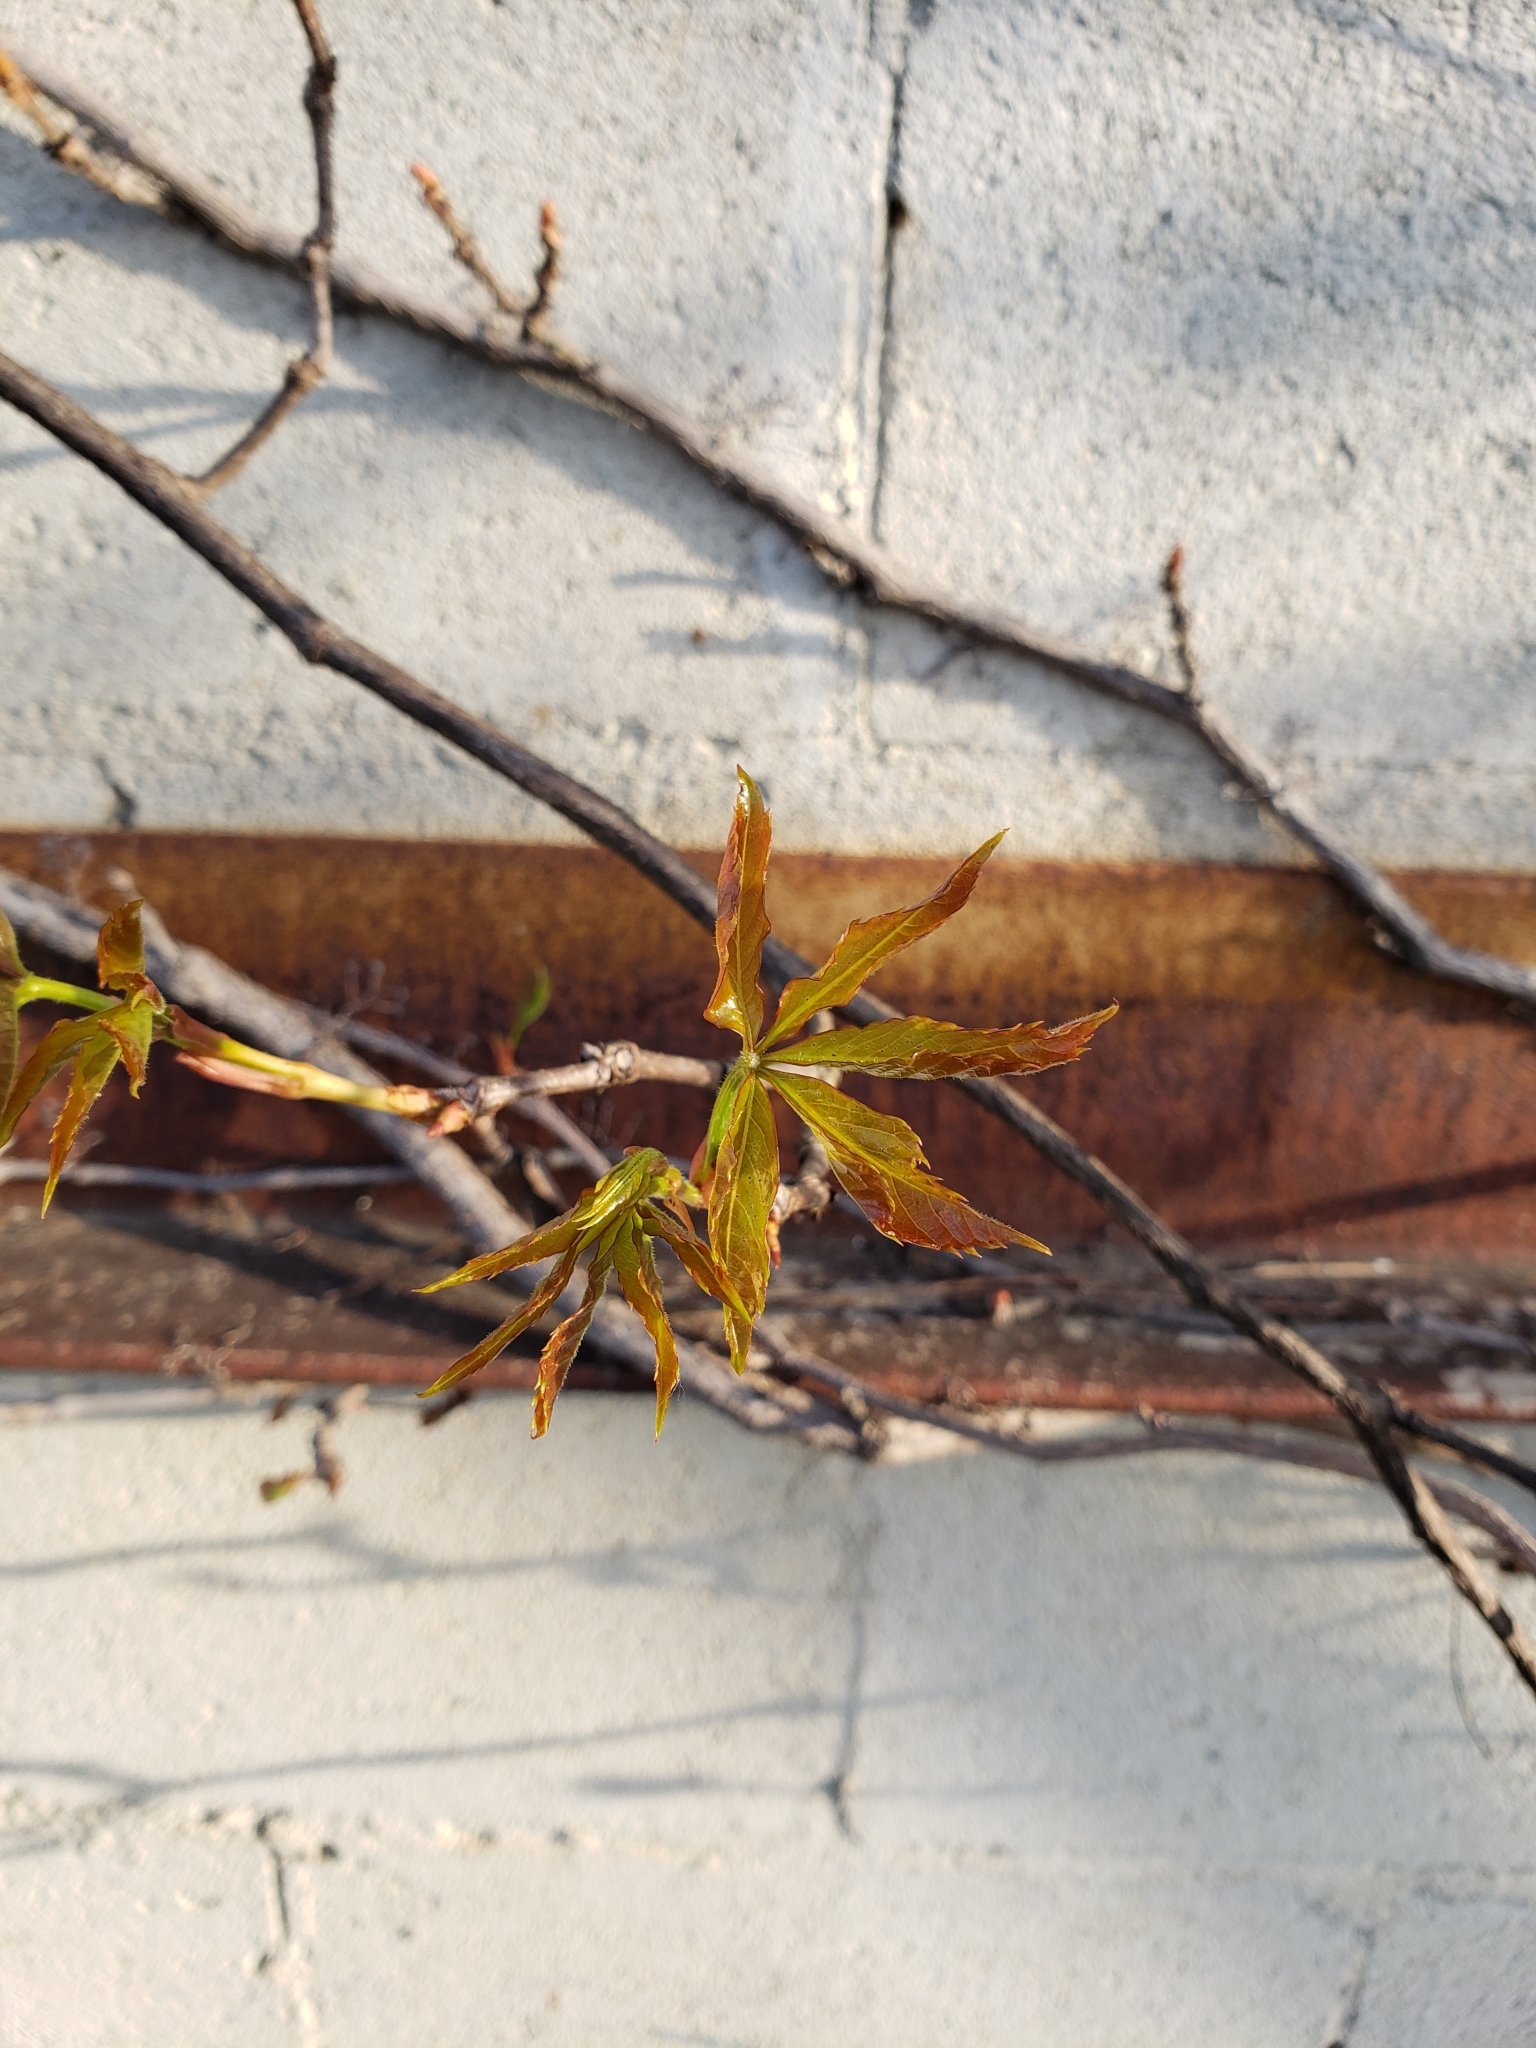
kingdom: Plantae
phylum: Tracheophyta
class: Magnoliopsida
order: Vitales
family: Vitaceae
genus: Parthenocissus
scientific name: Parthenocissus quinquefolia
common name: Virginia-creeper
